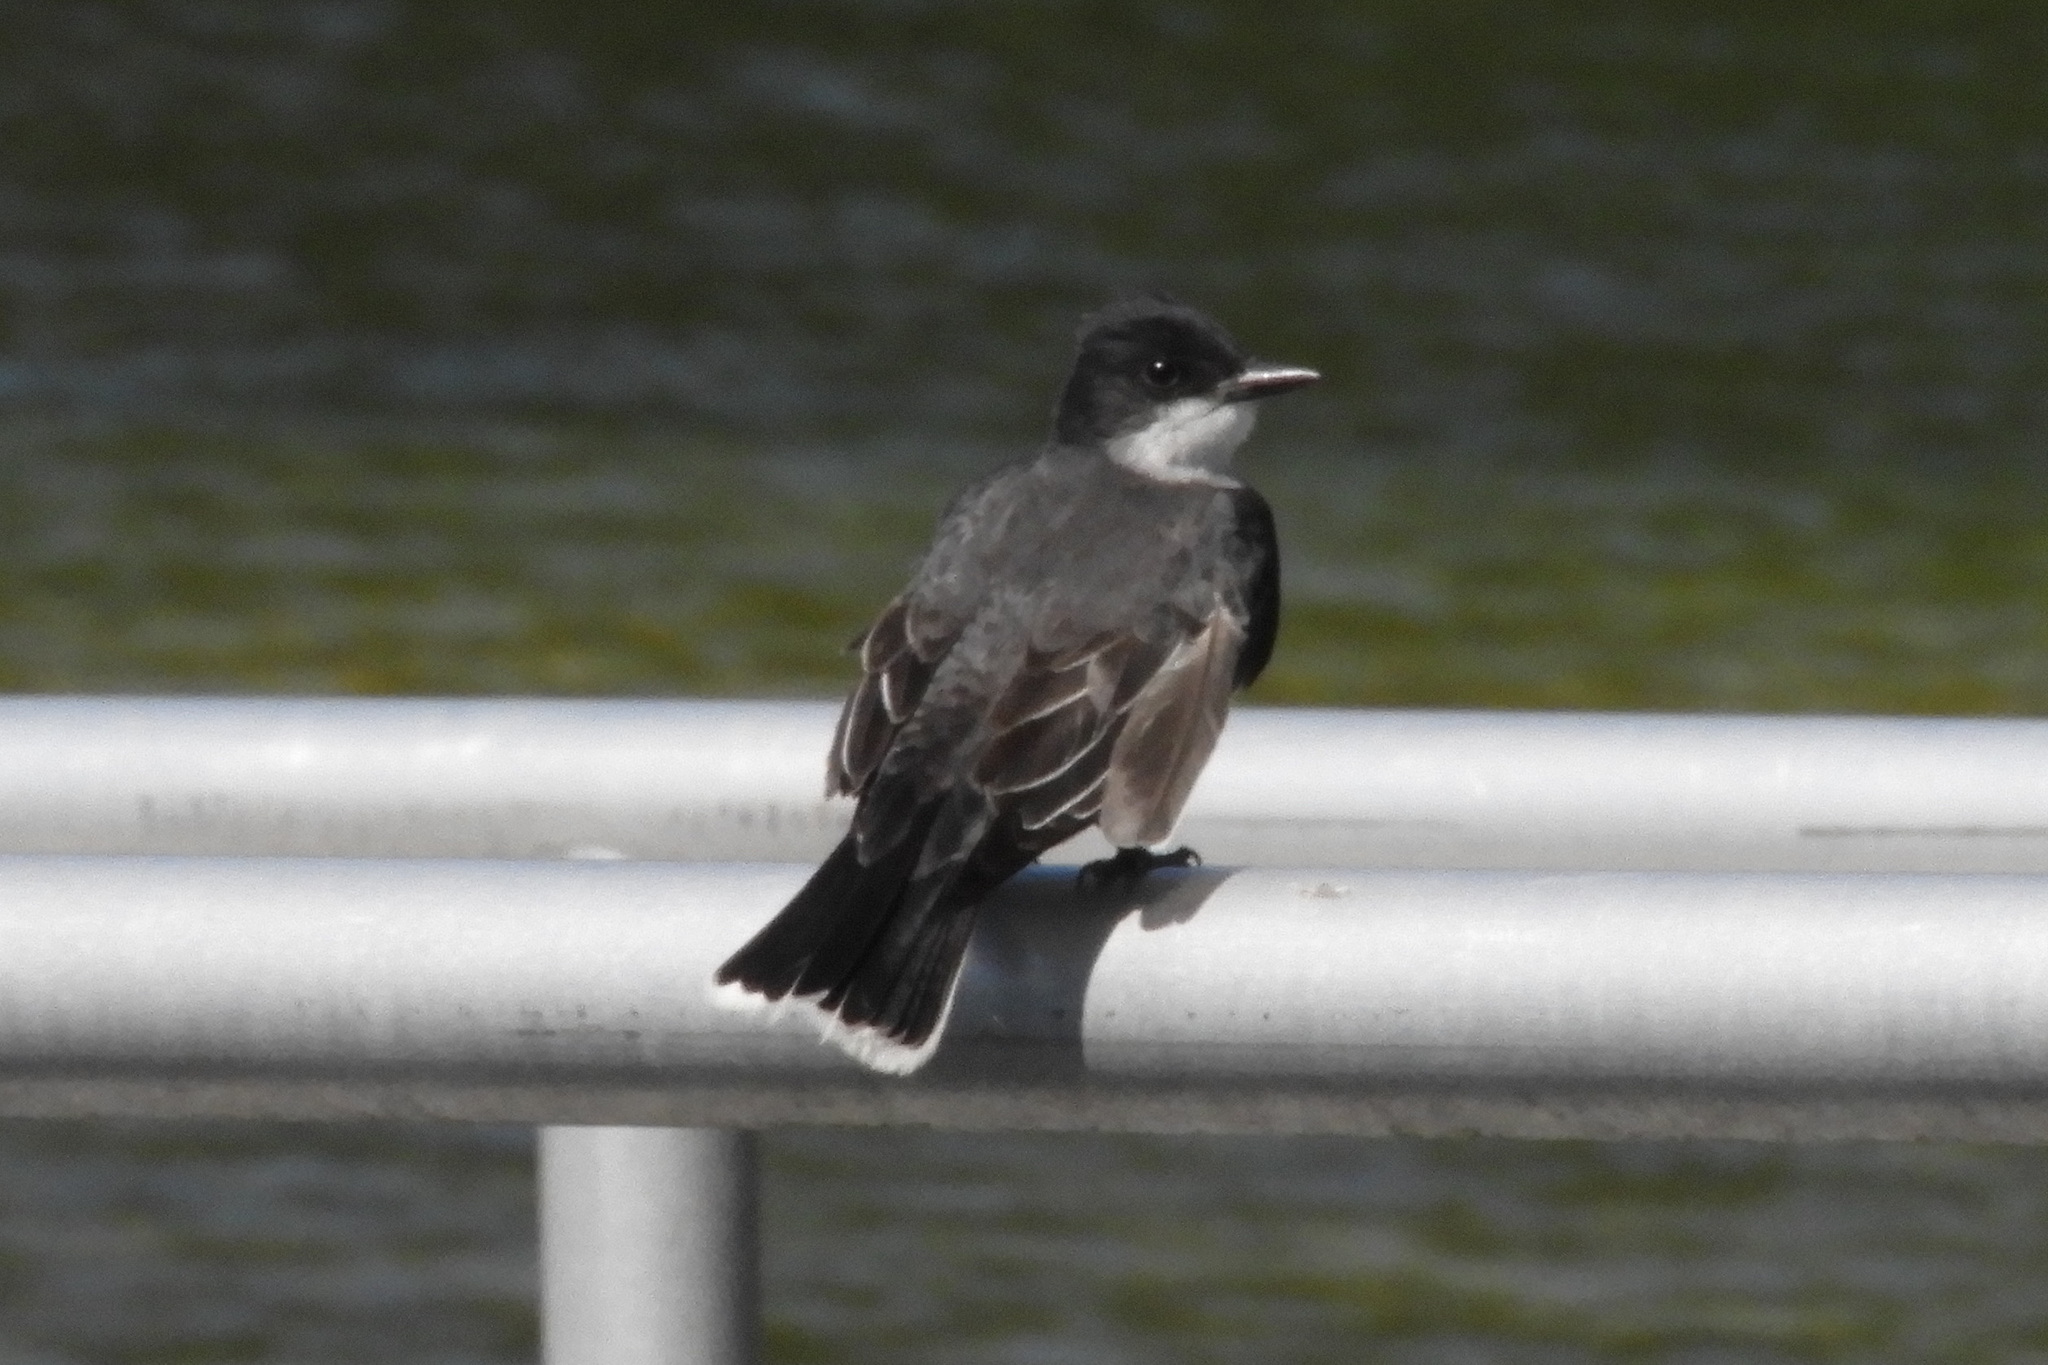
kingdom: Animalia
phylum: Chordata
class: Aves
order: Passeriformes
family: Tyrannidae
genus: Tyrannus
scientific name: Tyrannus tyrannus
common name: Eastern kingbird
